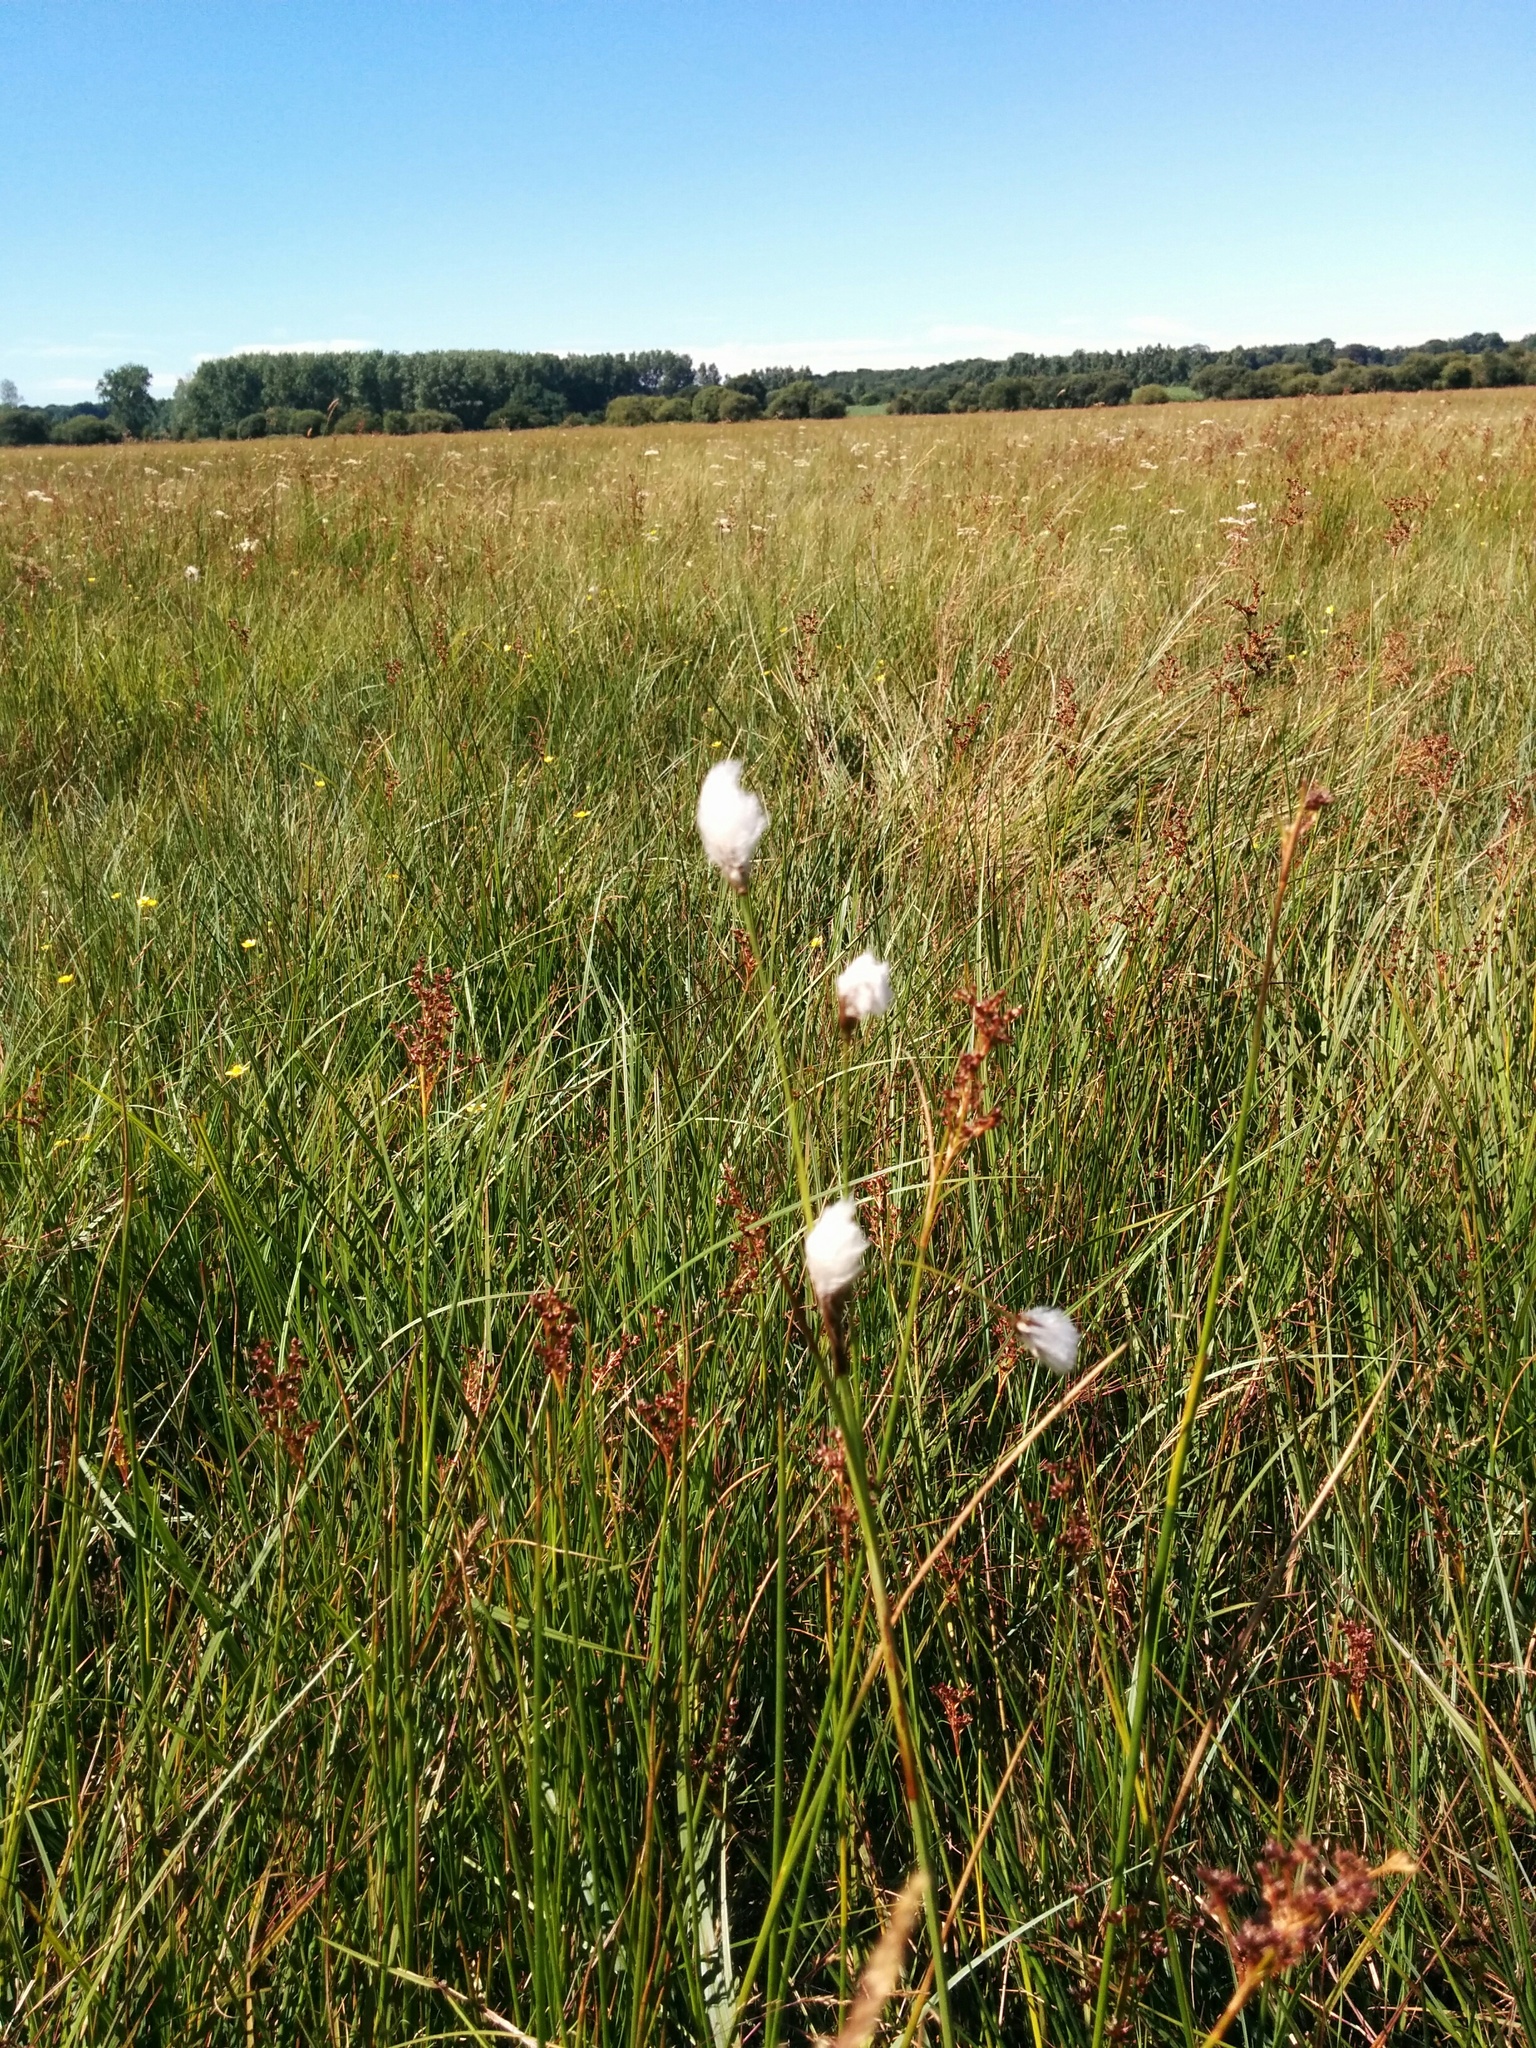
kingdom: Plantae
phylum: Tracheophyta
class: Liliopsida
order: Poales
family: Cyperaceae
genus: Eriophorum
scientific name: Eriophorum latifolium
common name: Broad-leaved cottongrass
